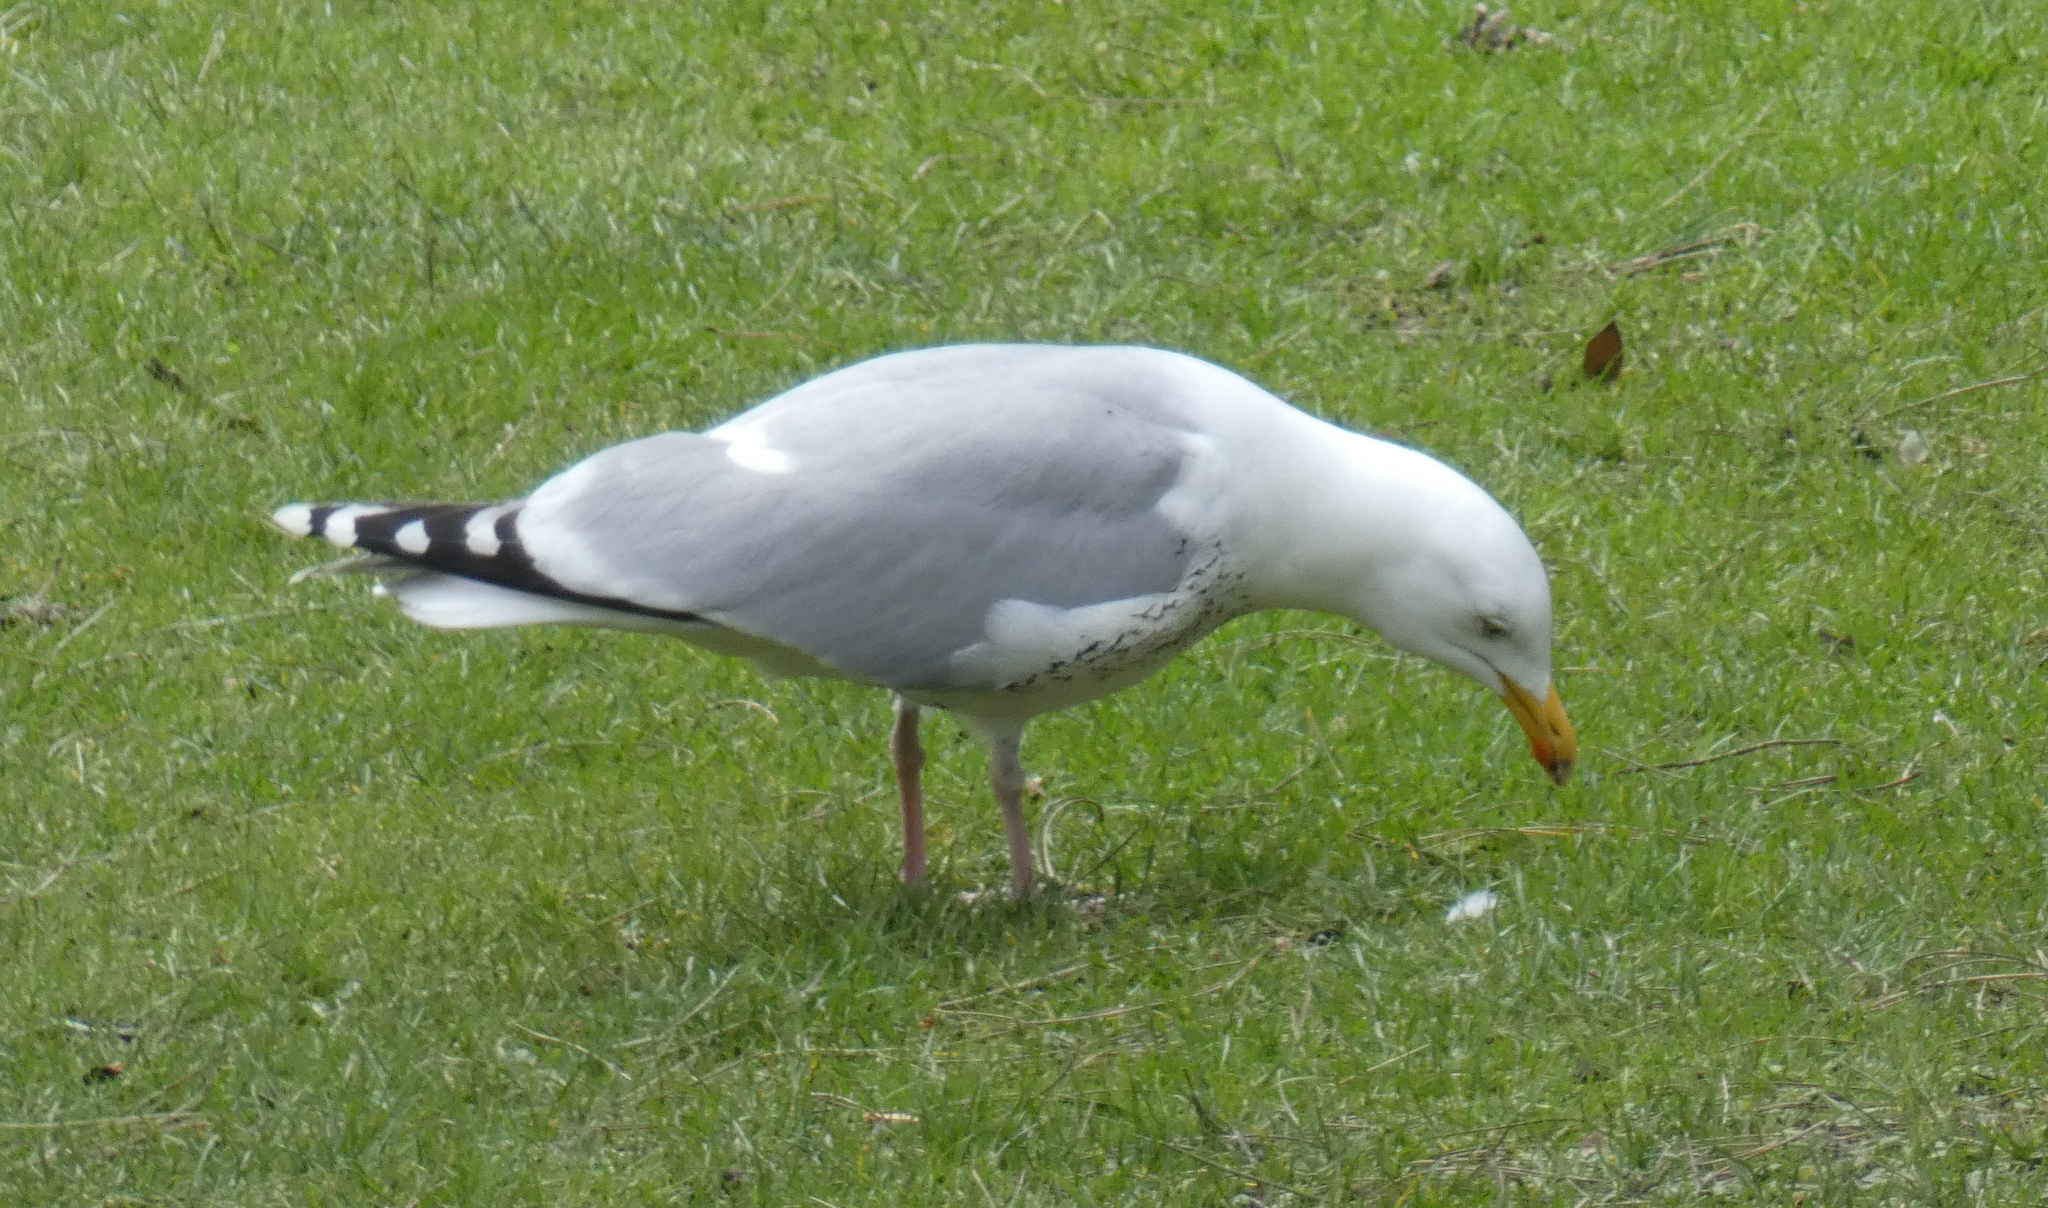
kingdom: Animalia
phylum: Chordata
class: Aves
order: Charadriiformes
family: Laridae
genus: Larus
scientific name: Larus argentatus
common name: Herring gull
